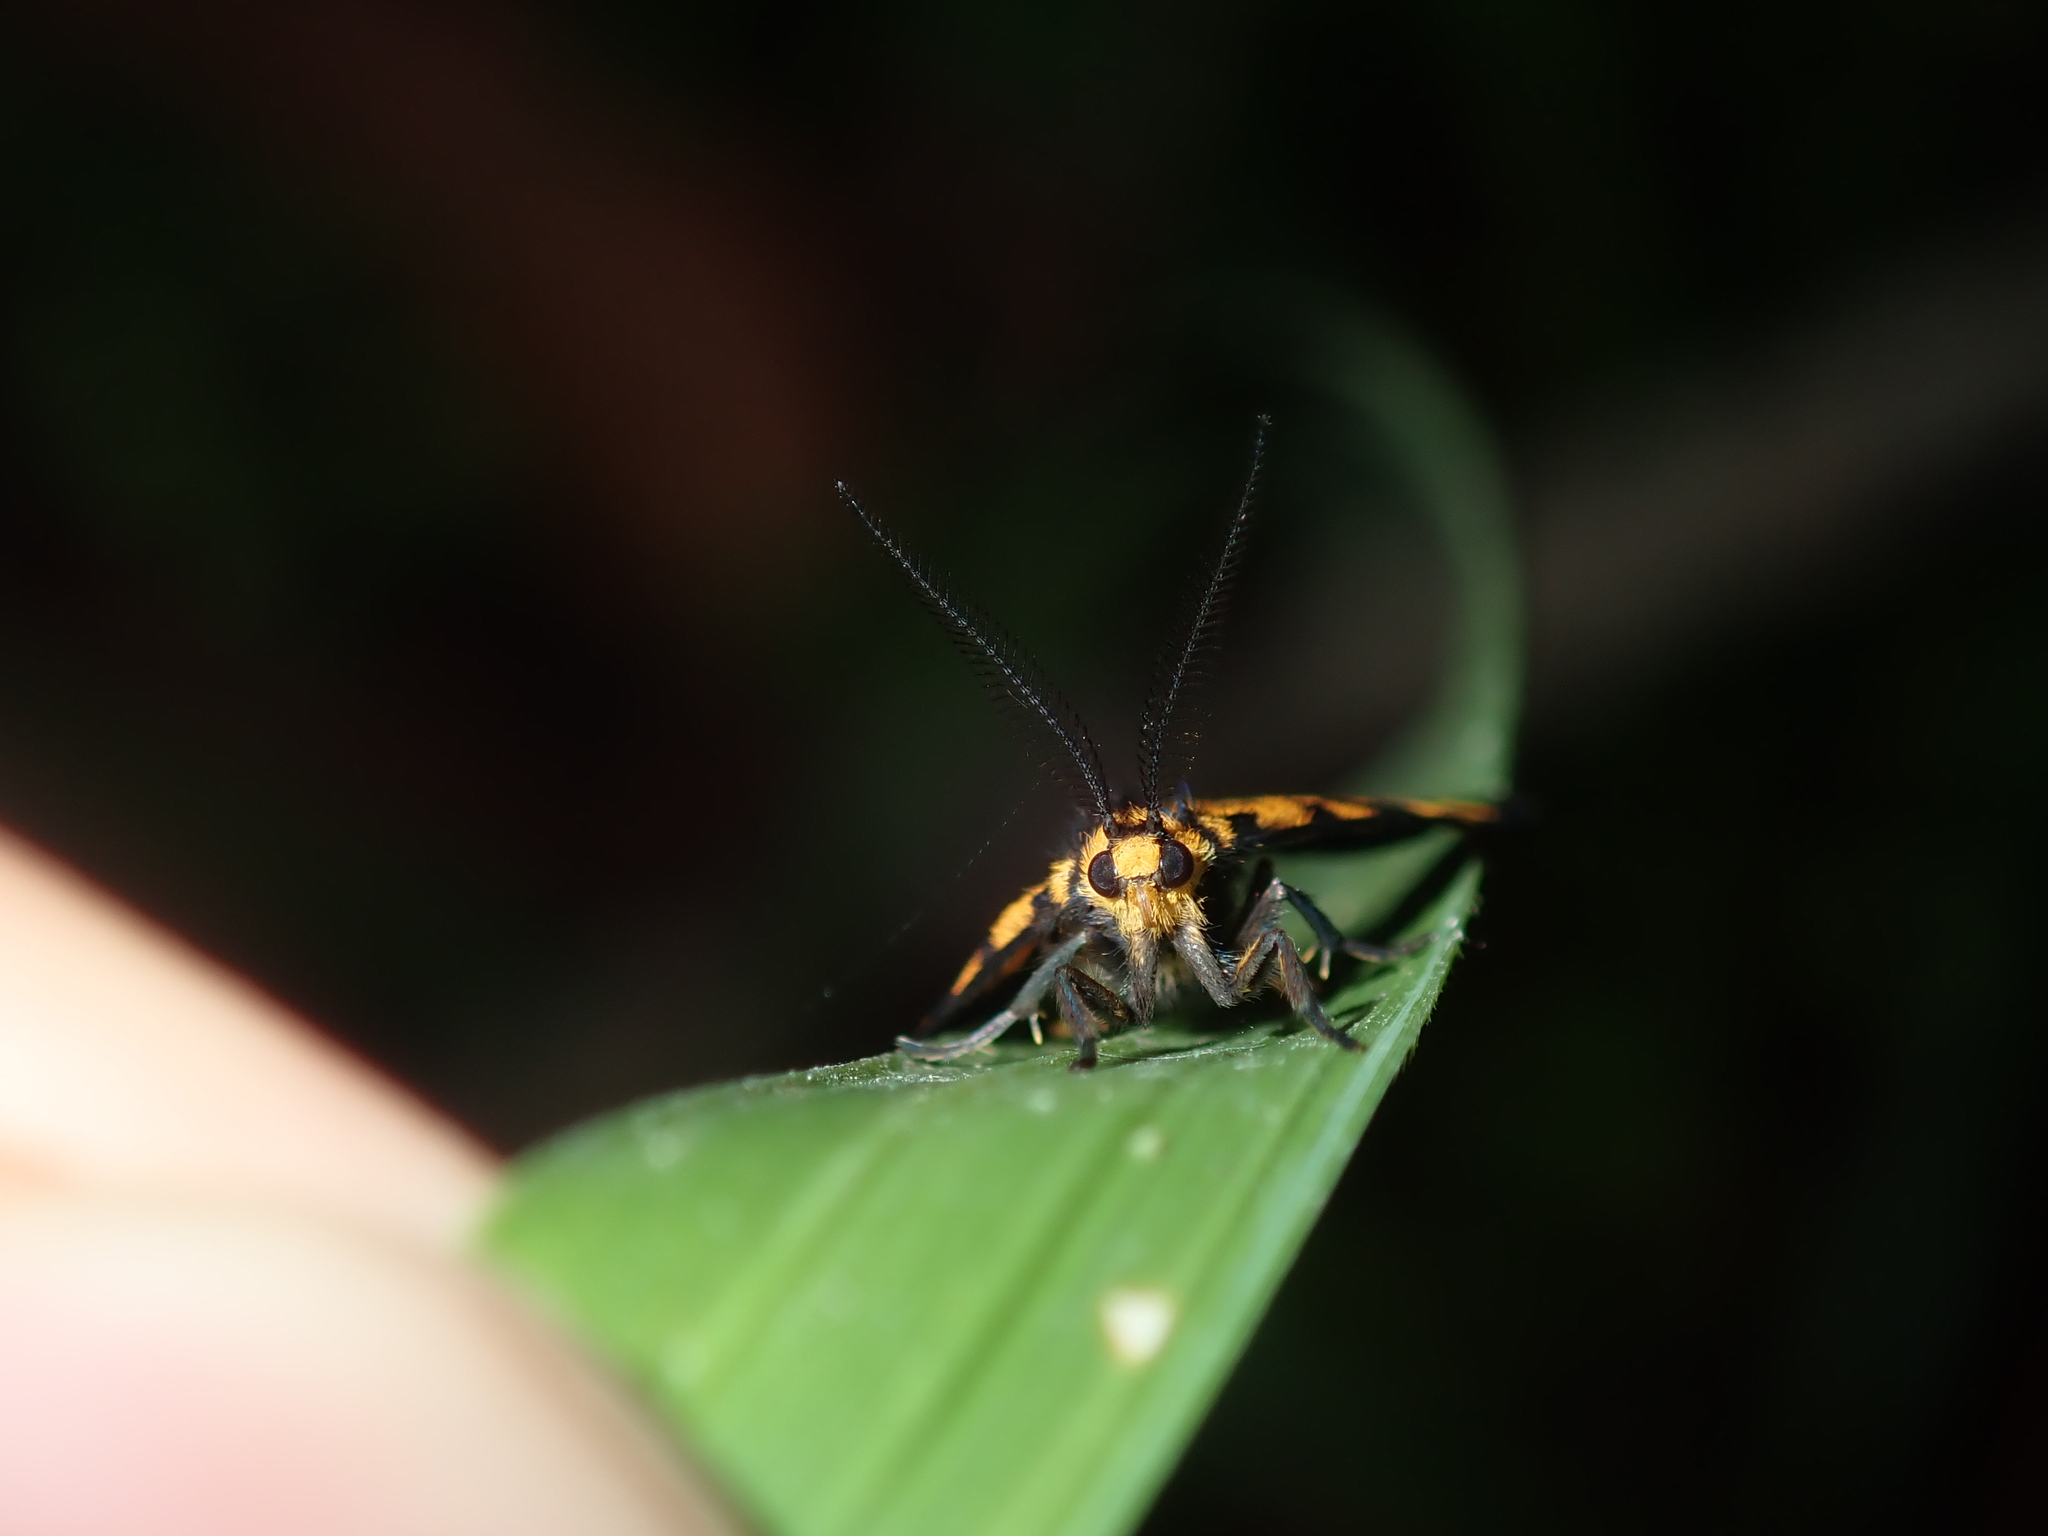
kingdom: Animalia
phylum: Arthropoda
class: Insecta
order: Lepidoptera
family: Erebidae
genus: Asura
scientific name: Asura lydia
